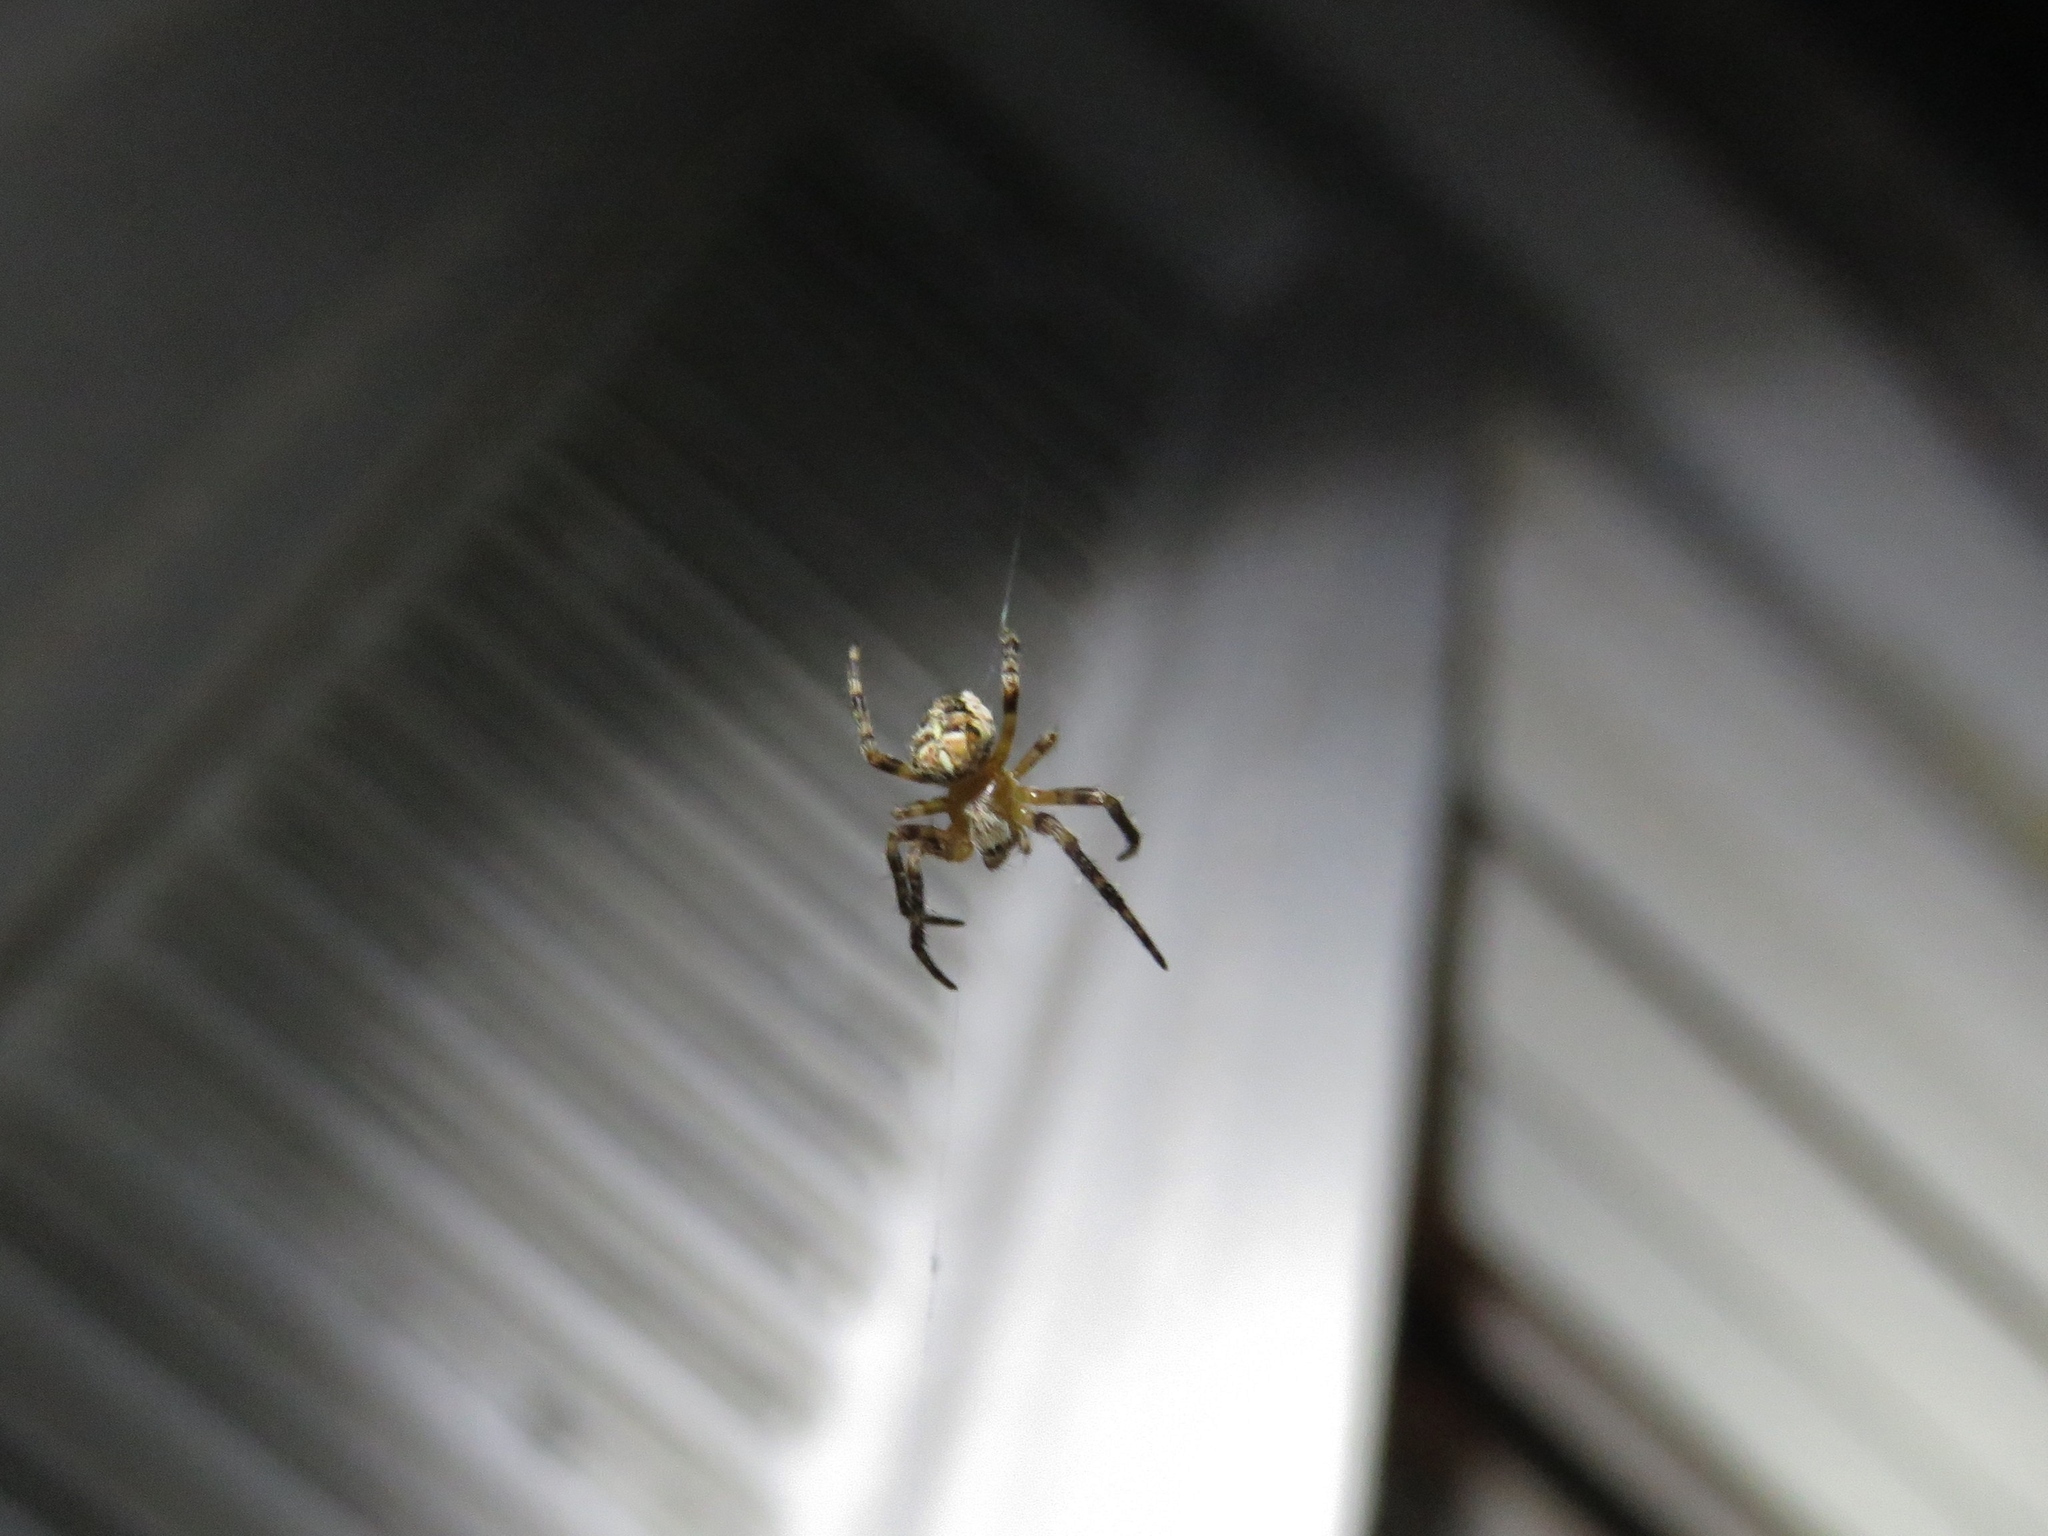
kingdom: Animalia
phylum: Arthropoda
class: Arachnida
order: Araneae
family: Araneidae
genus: Araneus
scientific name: Araneus diadematus
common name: Cross orbweaver
